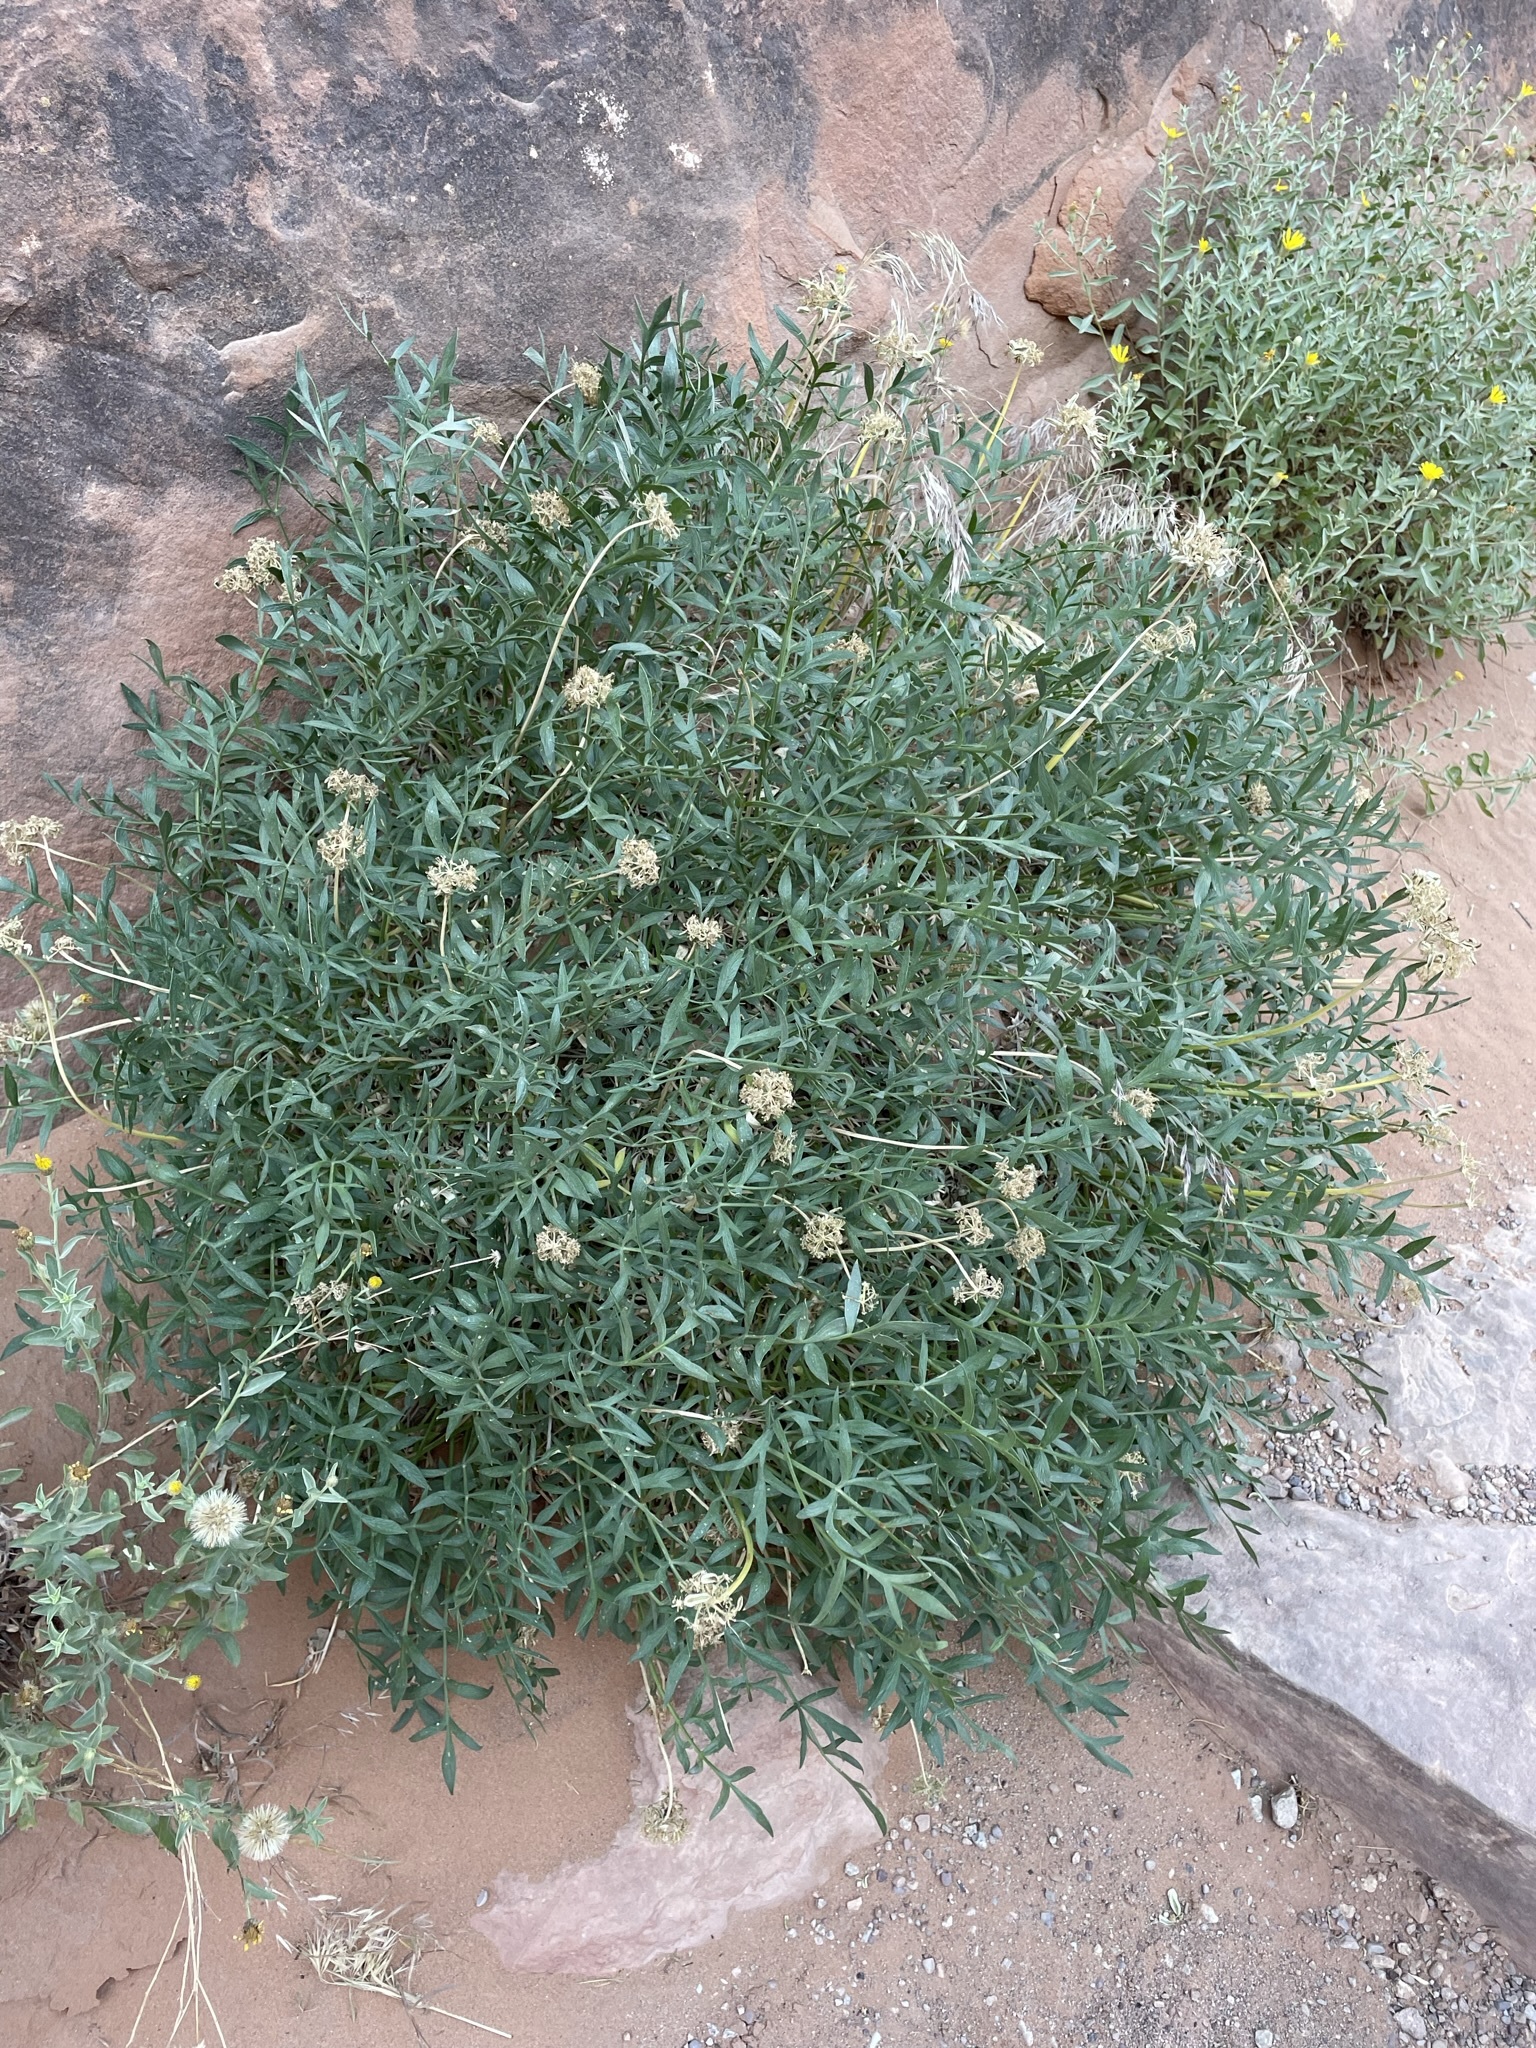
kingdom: Plantae
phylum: Tracheophyta
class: Magnoliopsida
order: Apiales
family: Apiaceae
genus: Lomatium
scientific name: Lomatium latilobum
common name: Canyonlands lomatium
